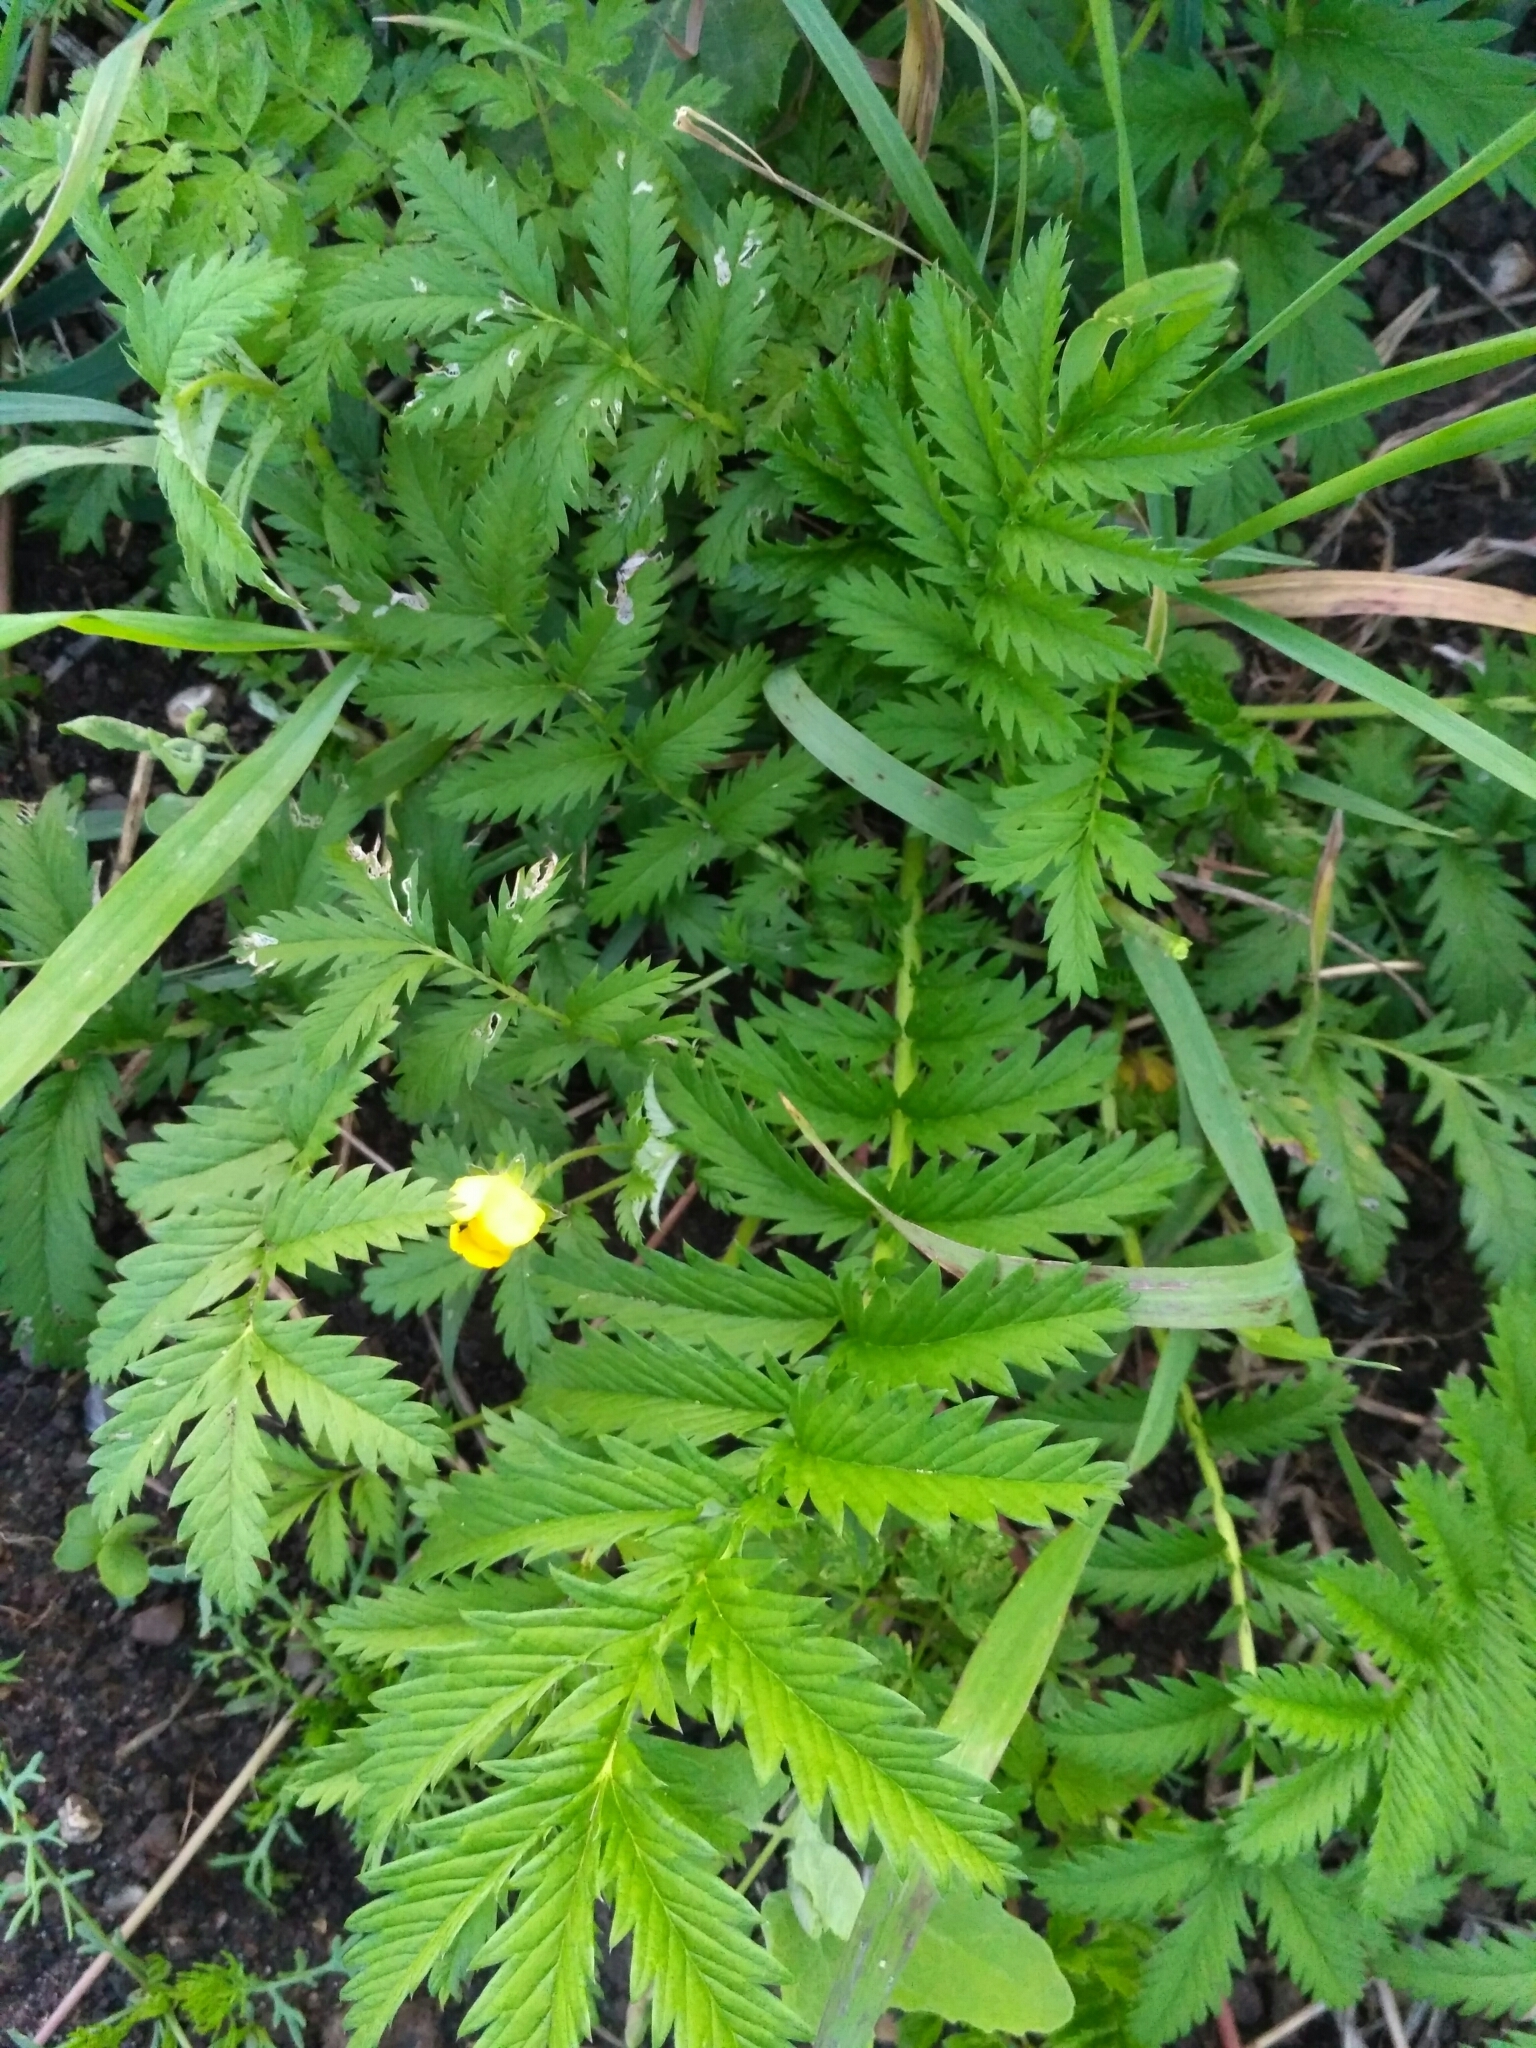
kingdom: Plantae
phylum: Tracheophyta
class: Magnoliopsida
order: Rosales
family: Rosaceae
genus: Argentina
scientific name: Argentina anserina
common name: Common silverweed
